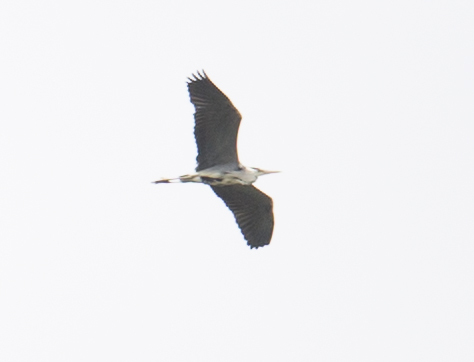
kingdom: Animalia
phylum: Chordata
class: Aves
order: Pelecaniformes
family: Ardeidae
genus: Ardea
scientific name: Ardea cinerea
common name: Grey heron
